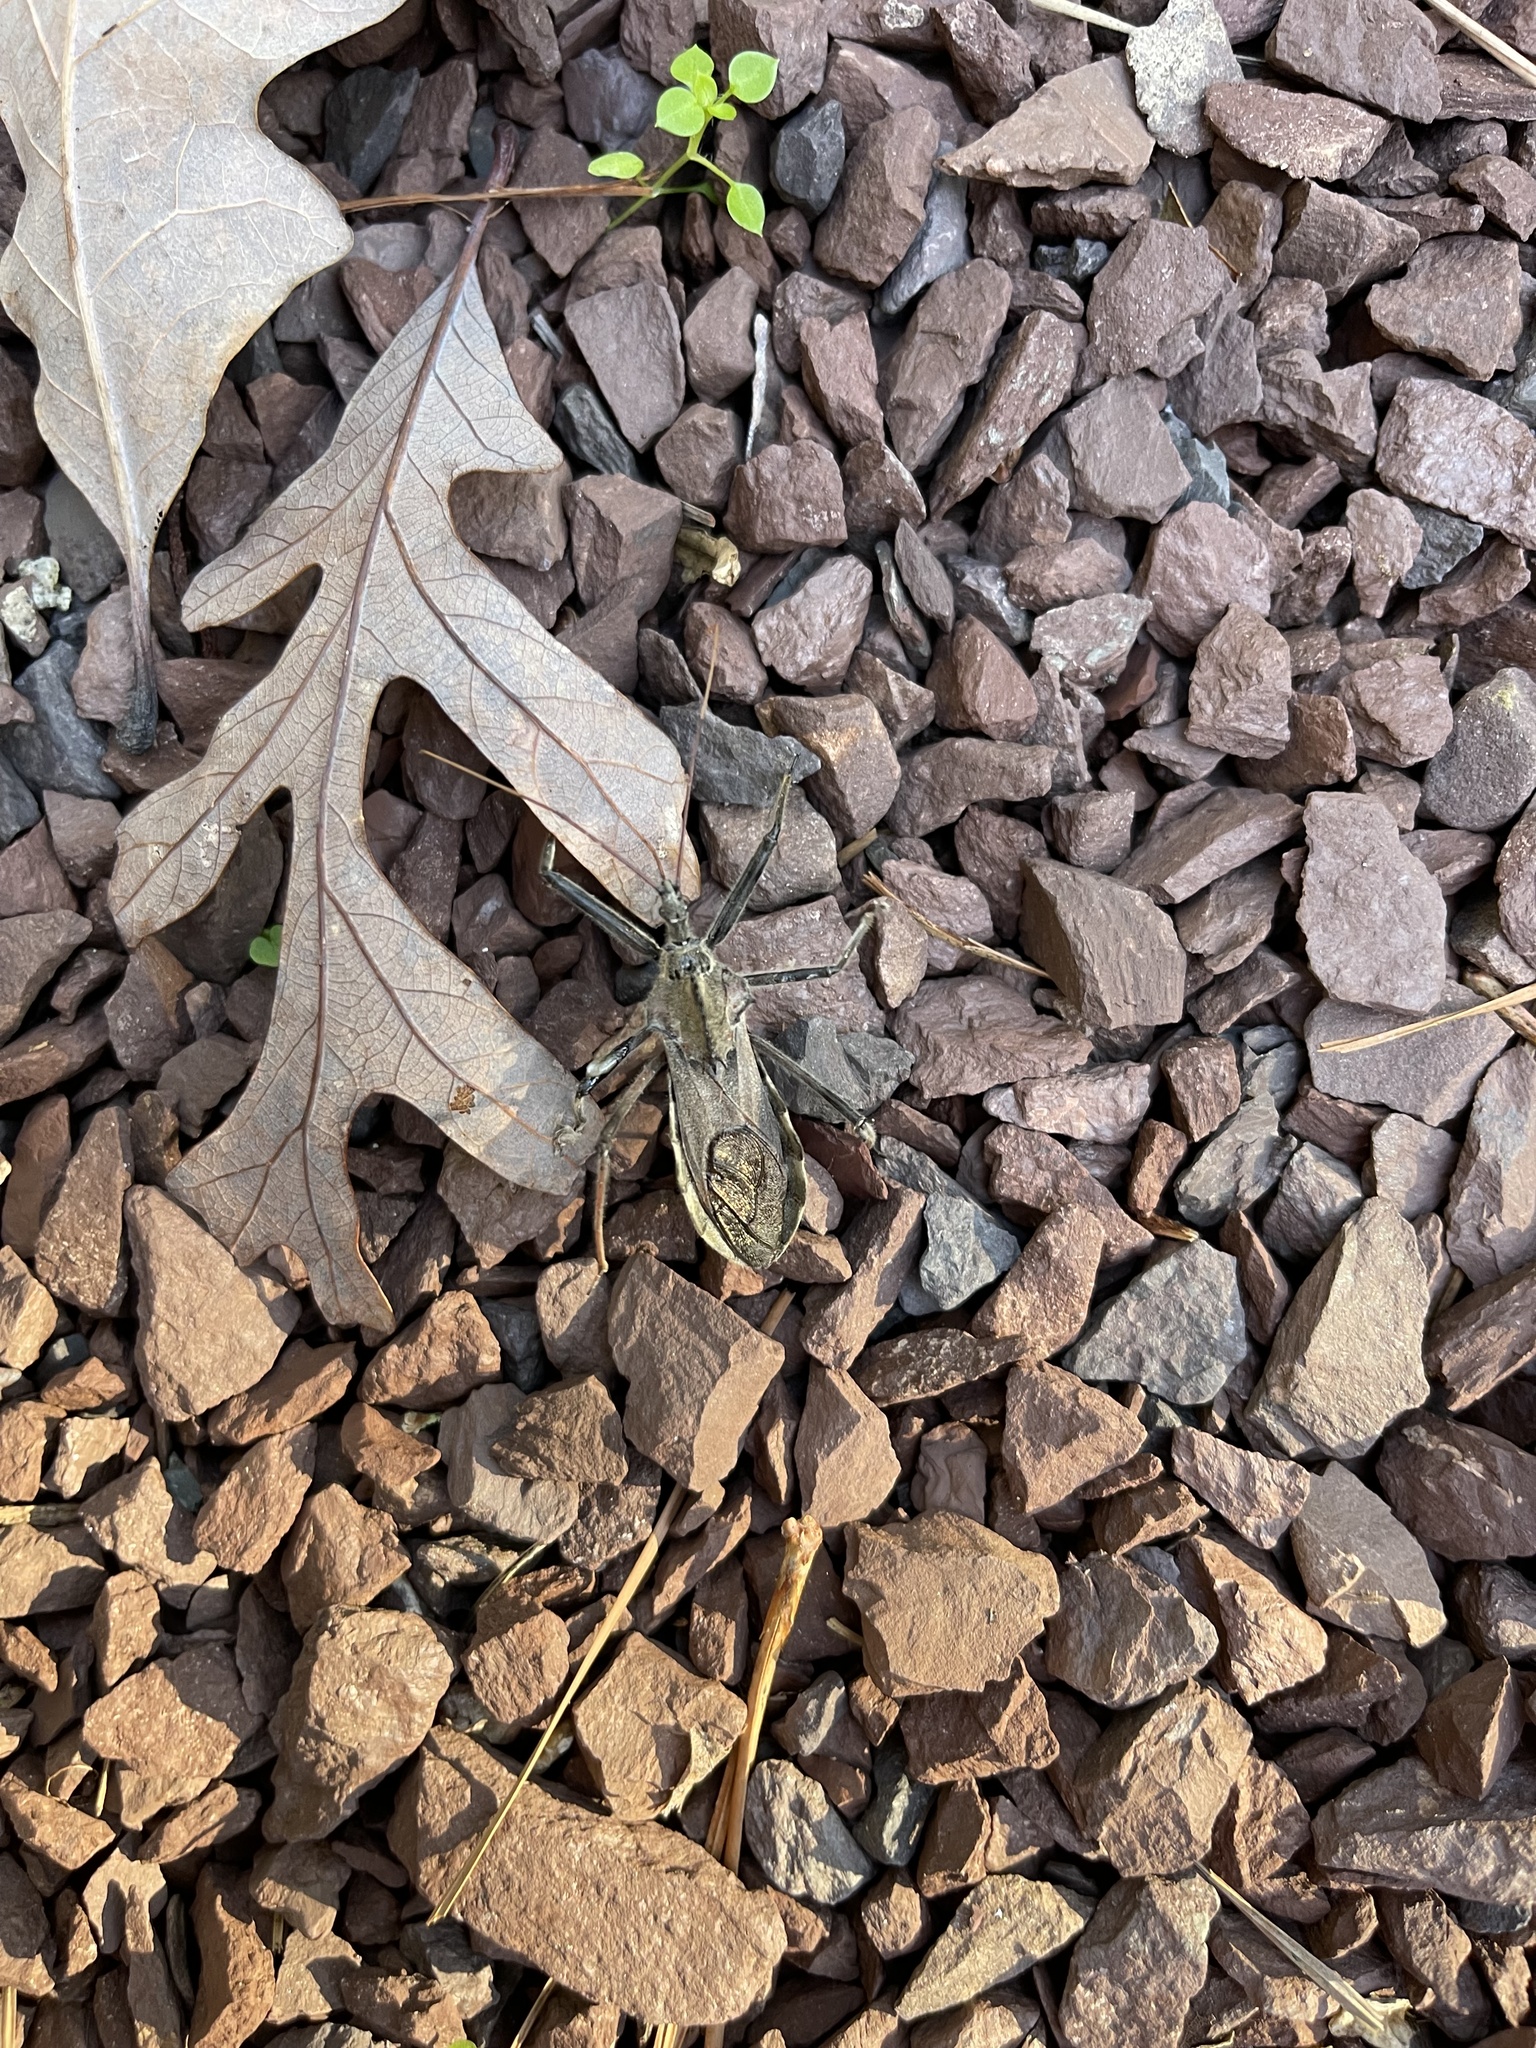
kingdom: Animalia
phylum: Arthropoda
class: Insecta
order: Hemiptera
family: Reduviidae
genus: Arilus
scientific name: Arilus cristatus
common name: North american wheel bug
